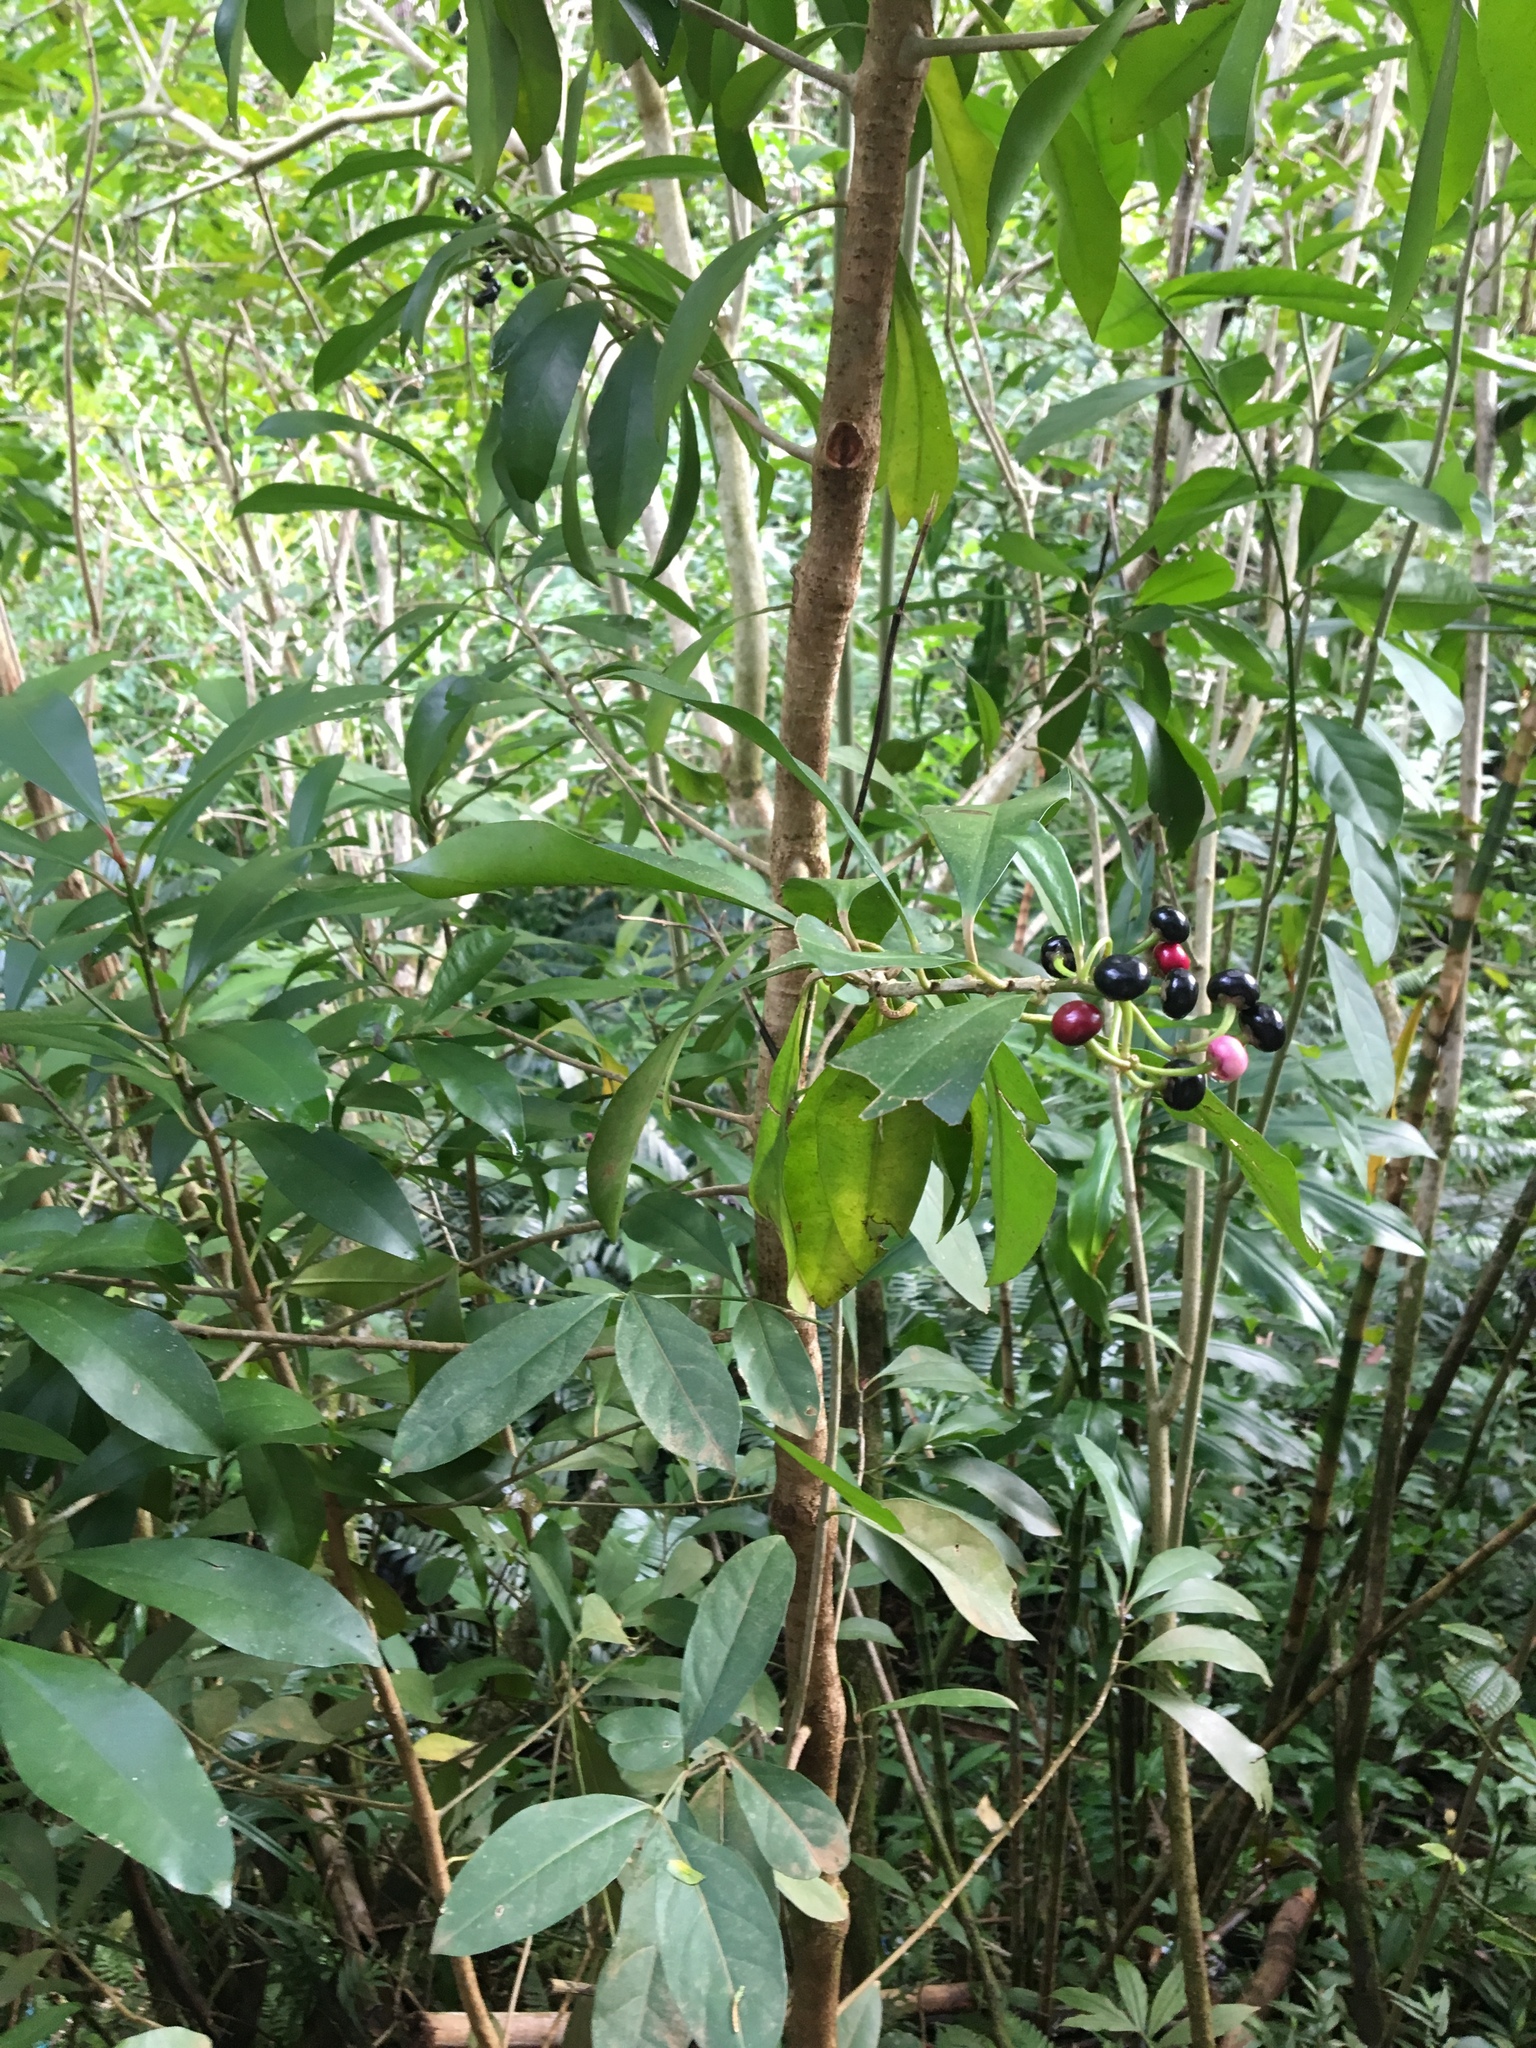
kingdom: Plantae
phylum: Tracheophyta
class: Magnoliopsida
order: Ericales
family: Primulaceae
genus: Ardisia
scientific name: Ardisia elliptica
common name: Shoebutton
